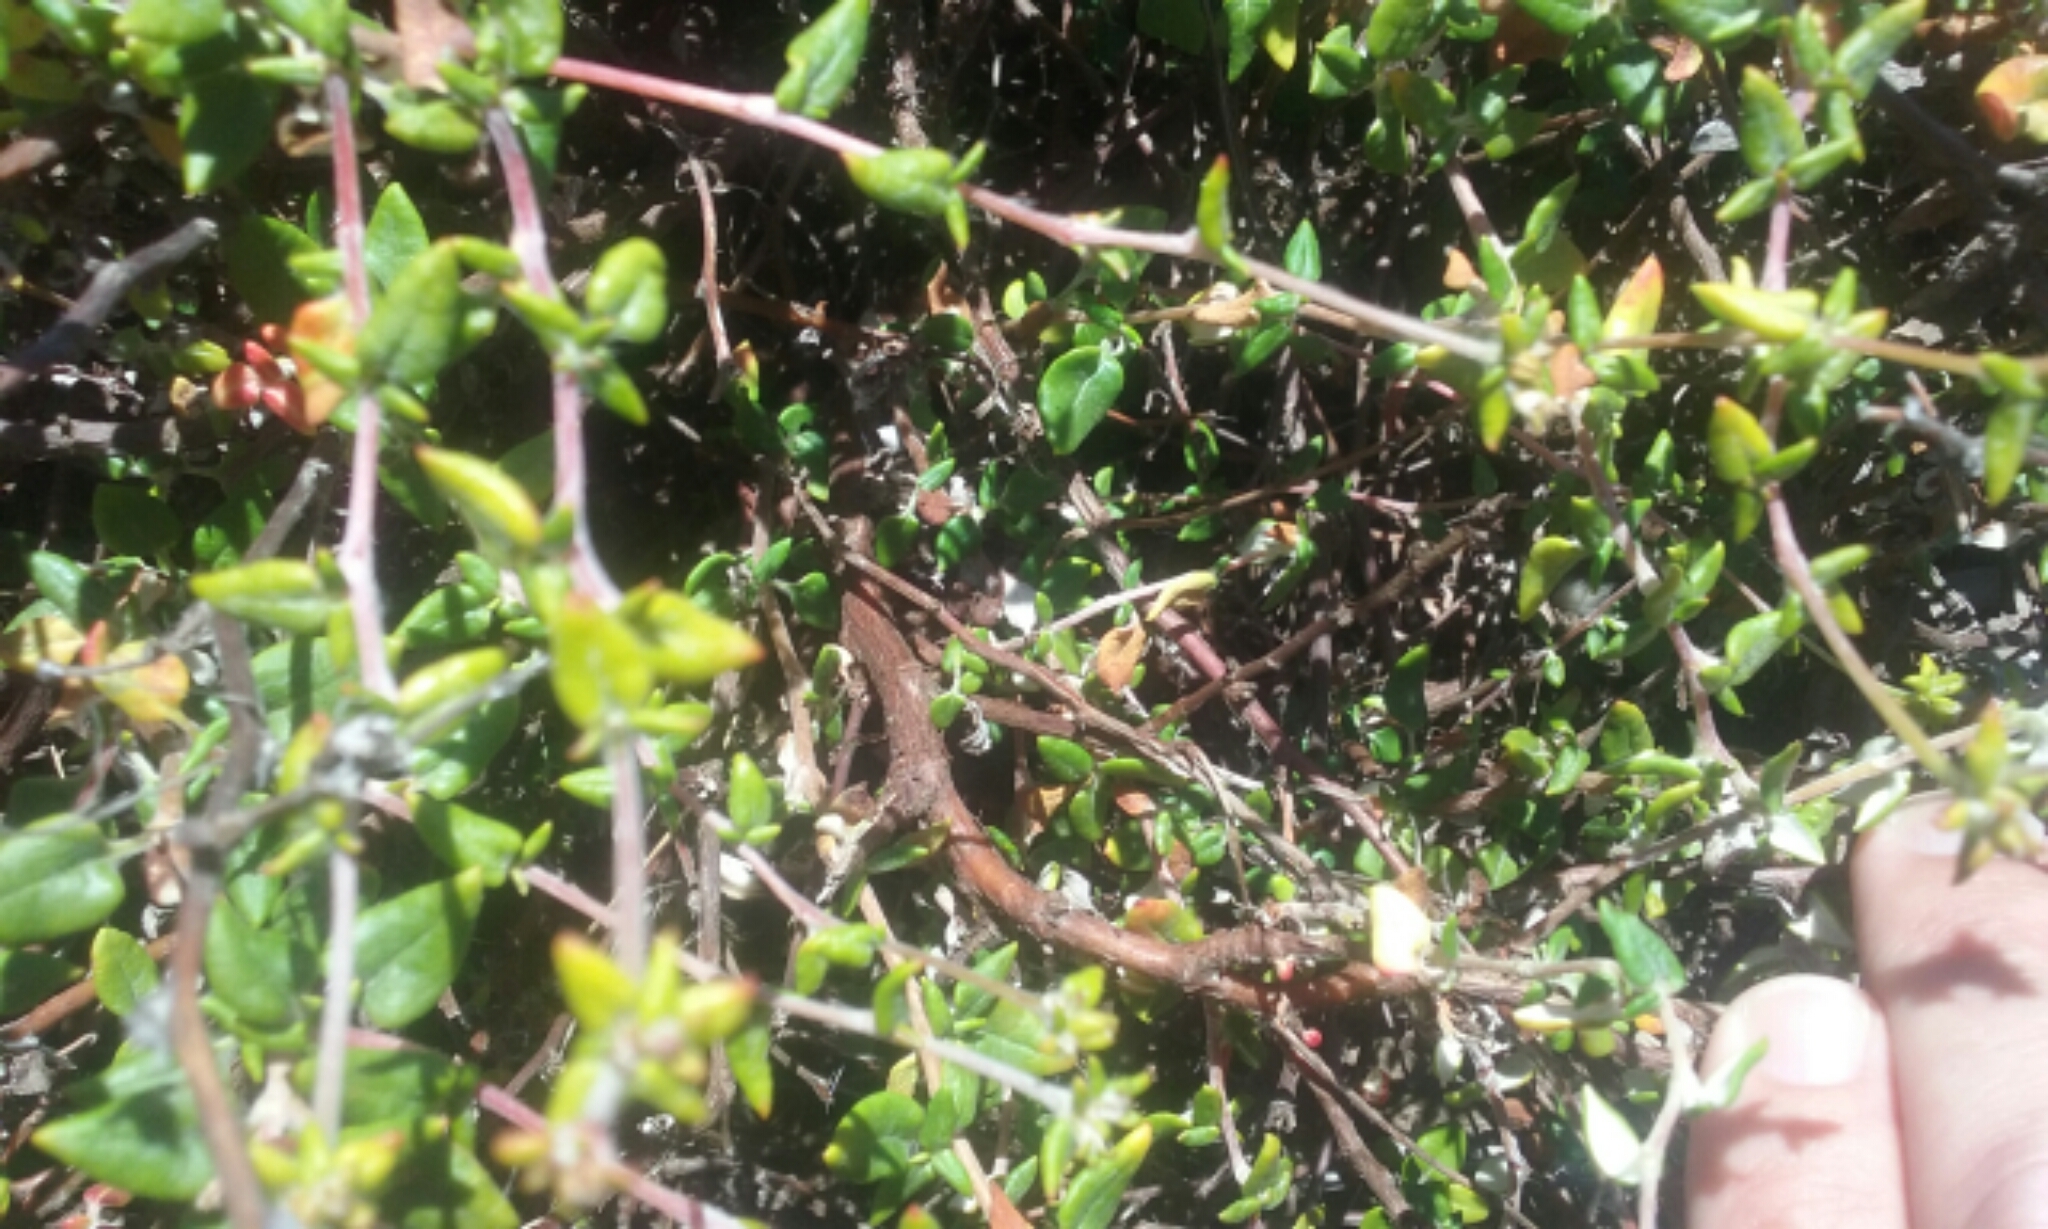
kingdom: Plantae
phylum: Tracheophyta
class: Magnoliopsida
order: Caryophyllales
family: Polygonaceae
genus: Eriogonum
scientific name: Eriogonum parvifolium
